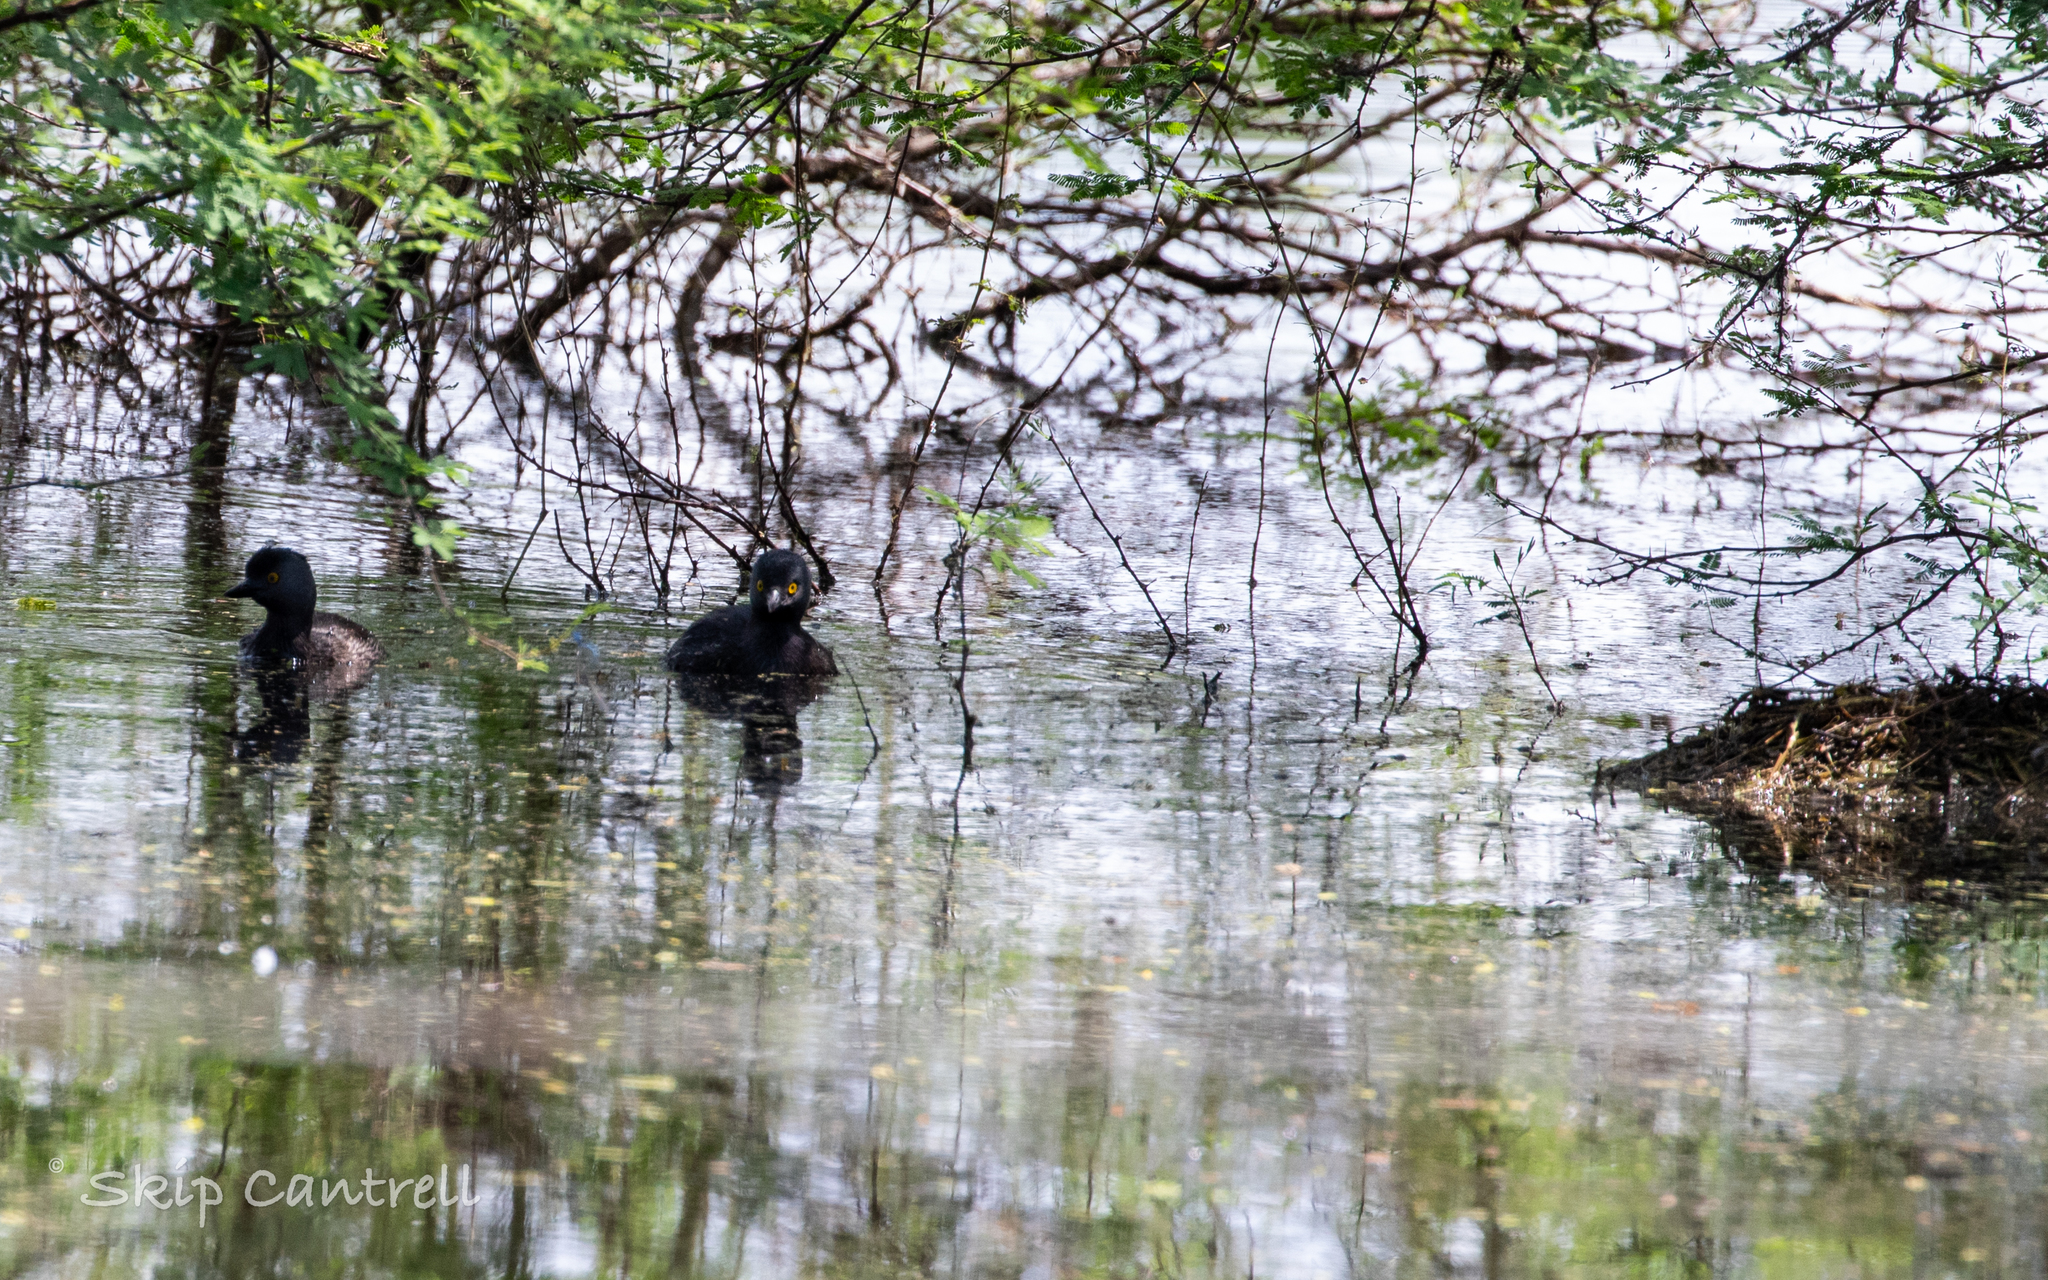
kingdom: Animalia
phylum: Chordata
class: Aves
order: Podicipediformes
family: Podicipedidae
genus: Tachybaptus
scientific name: Tachybaptus dominicus
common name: Least grebe
